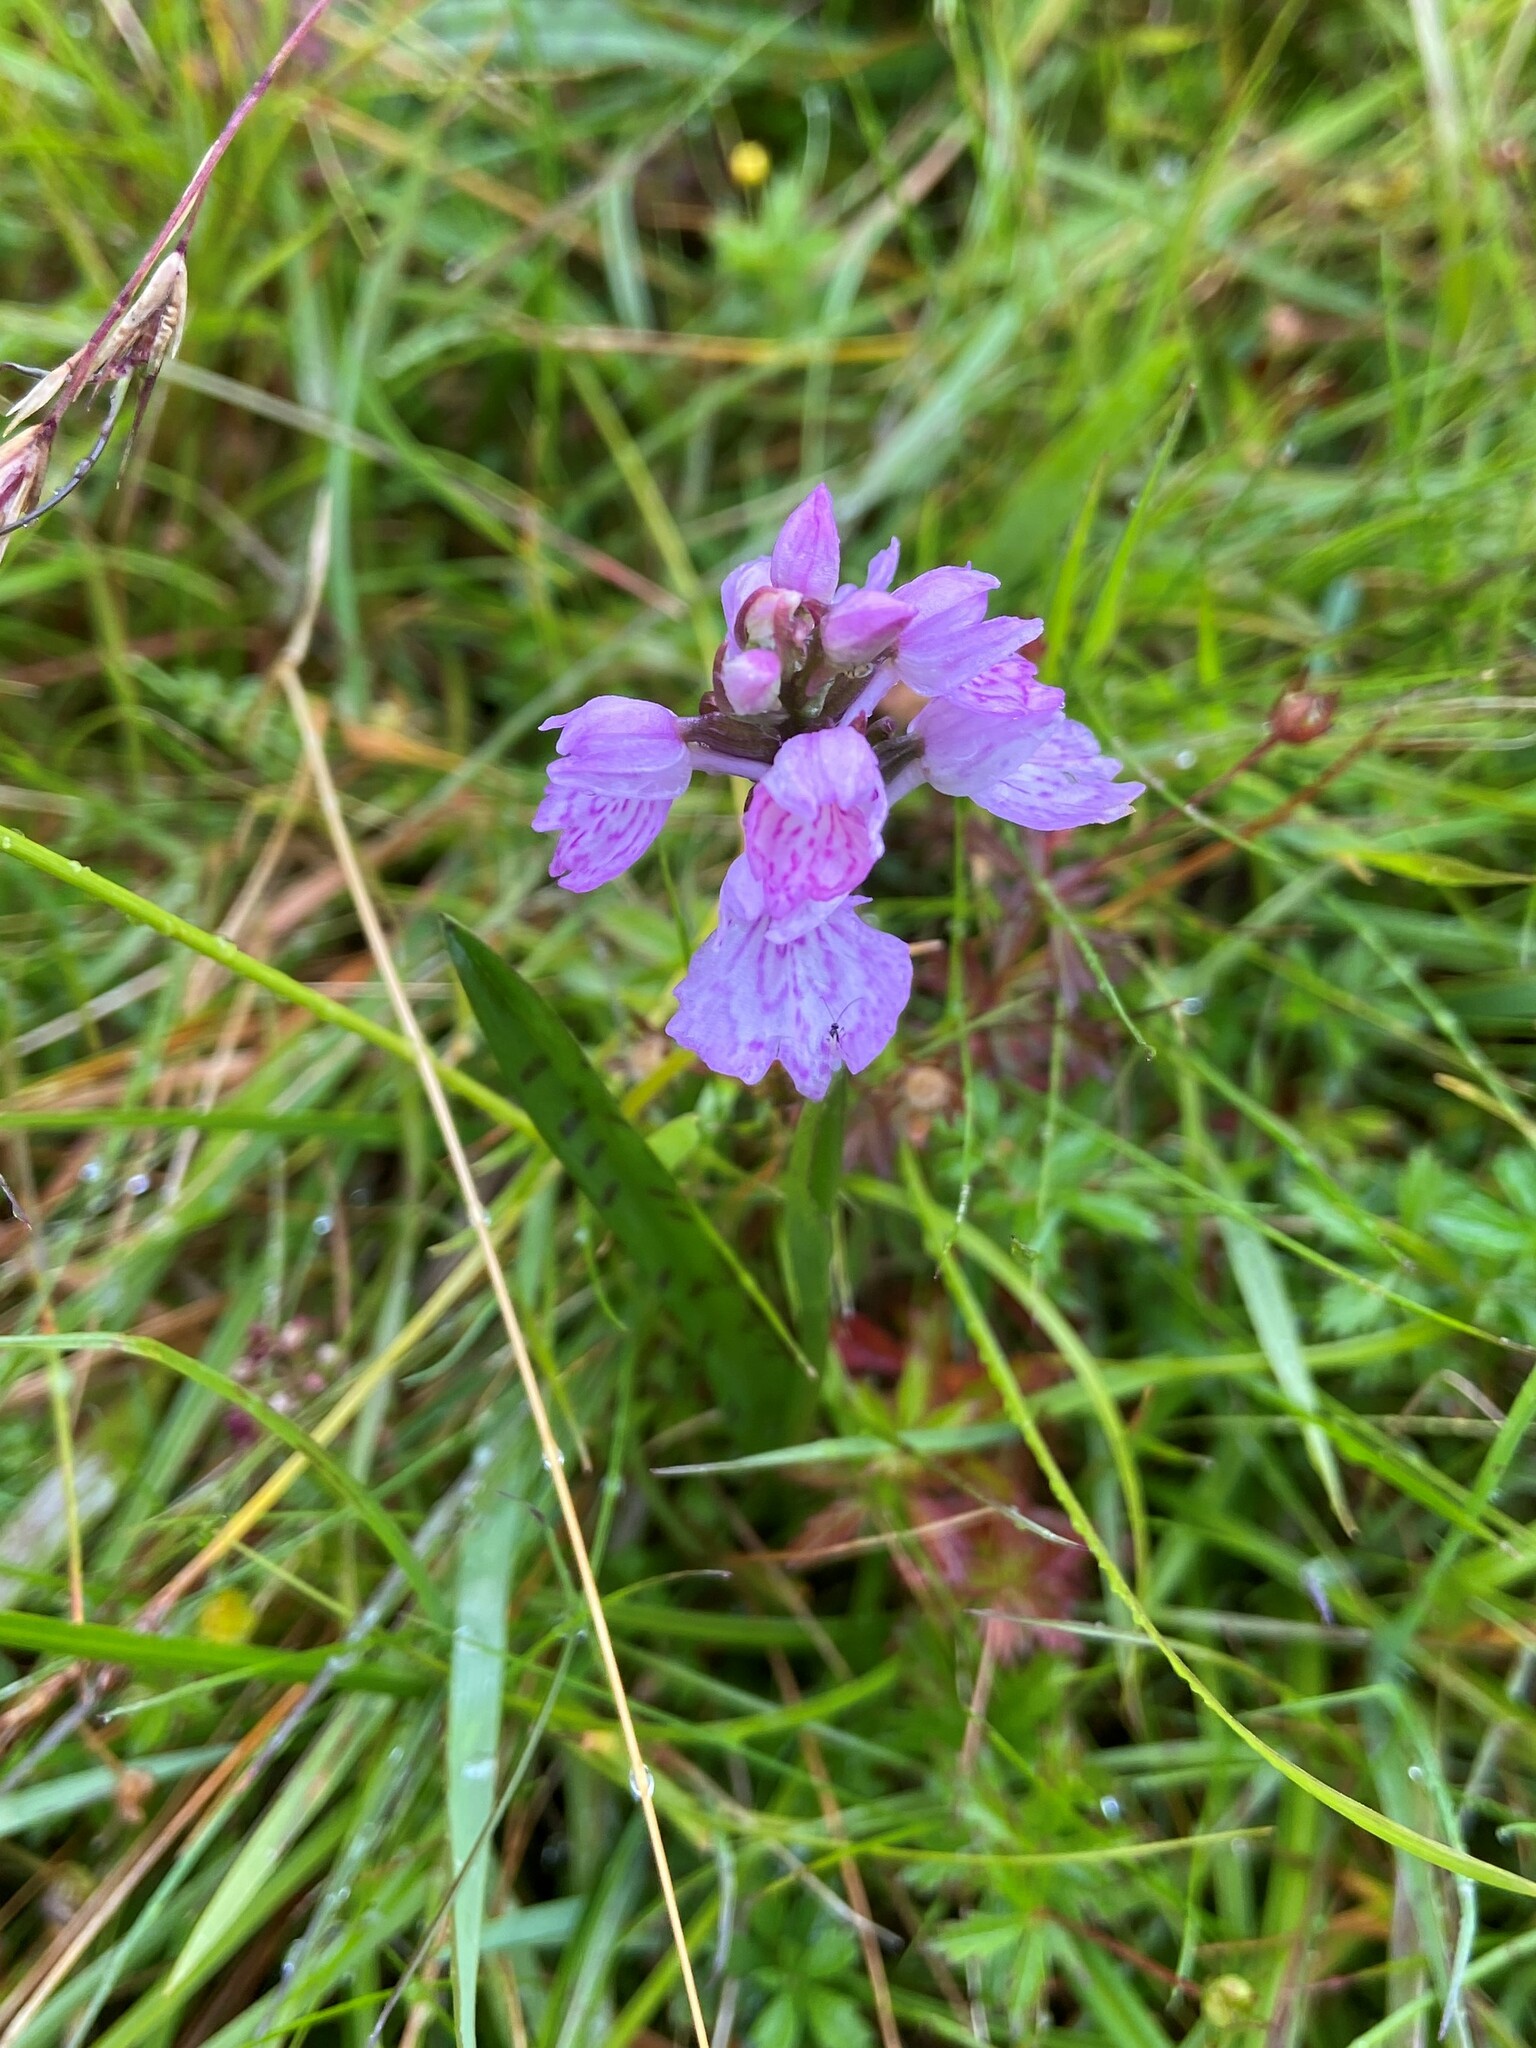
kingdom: Plantae
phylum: Tracheophyta
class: Liliopsida
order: Asparagales
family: Orchidaceae
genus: Dactylorhiza
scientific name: Dactylorhiza maculata
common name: Heath spotted-orchid
